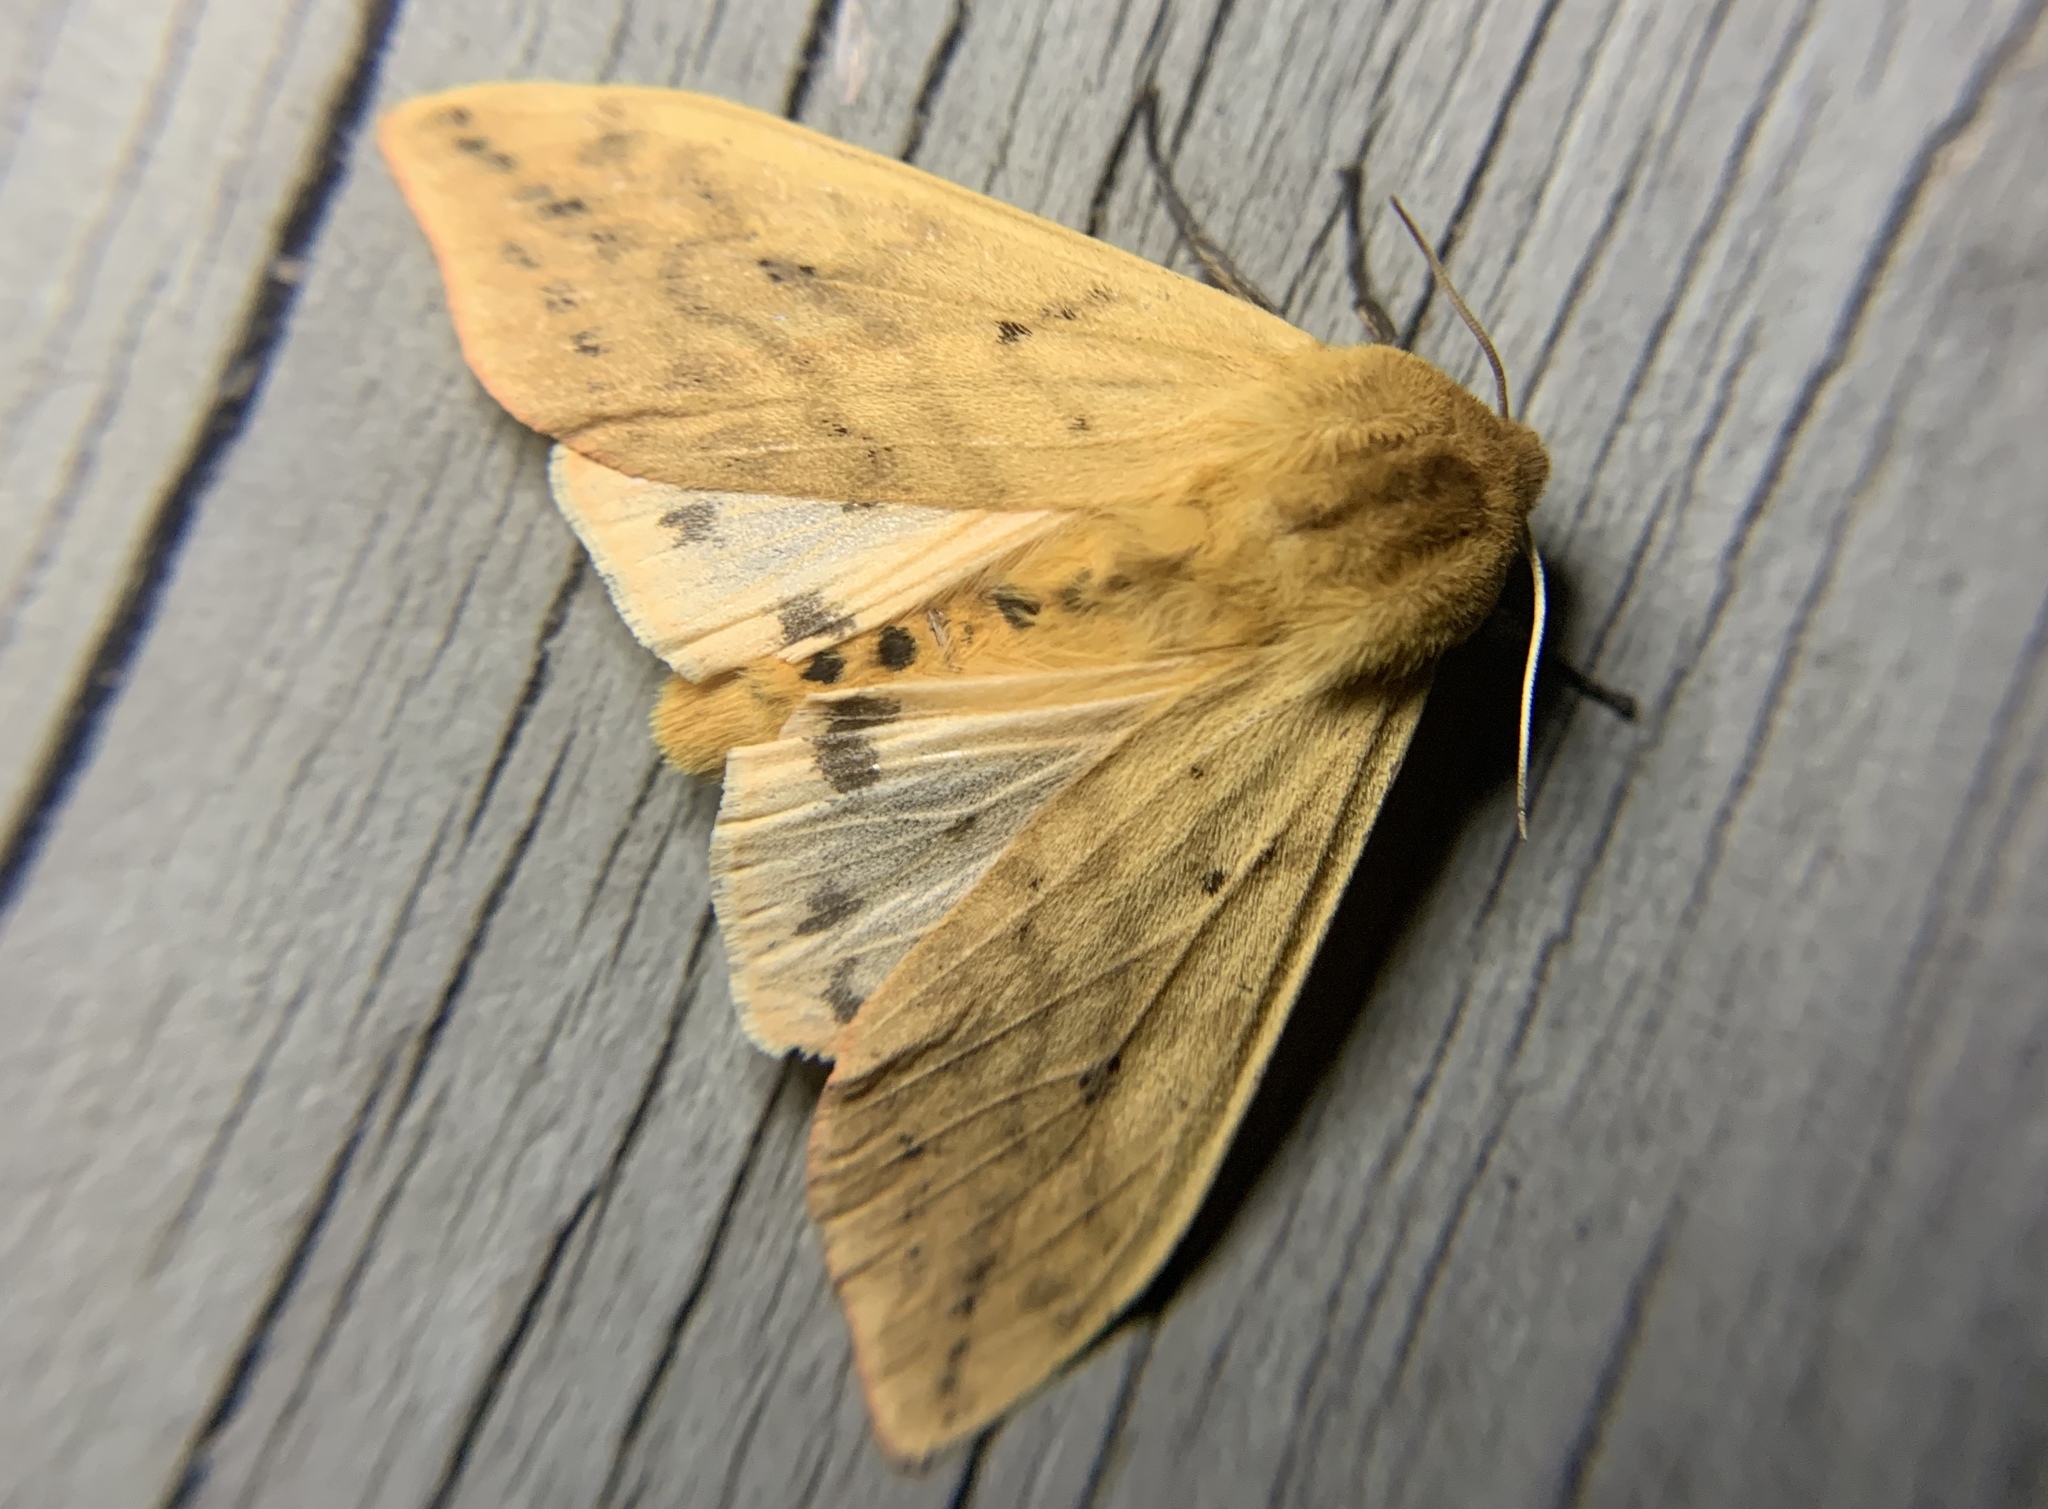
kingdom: Animalia
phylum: Arthropoda
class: Insecta
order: Lepidoptera
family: Erebidae
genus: Pyrrharctia
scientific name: Pyrrharctia isabella
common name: Isabella tiger moth
